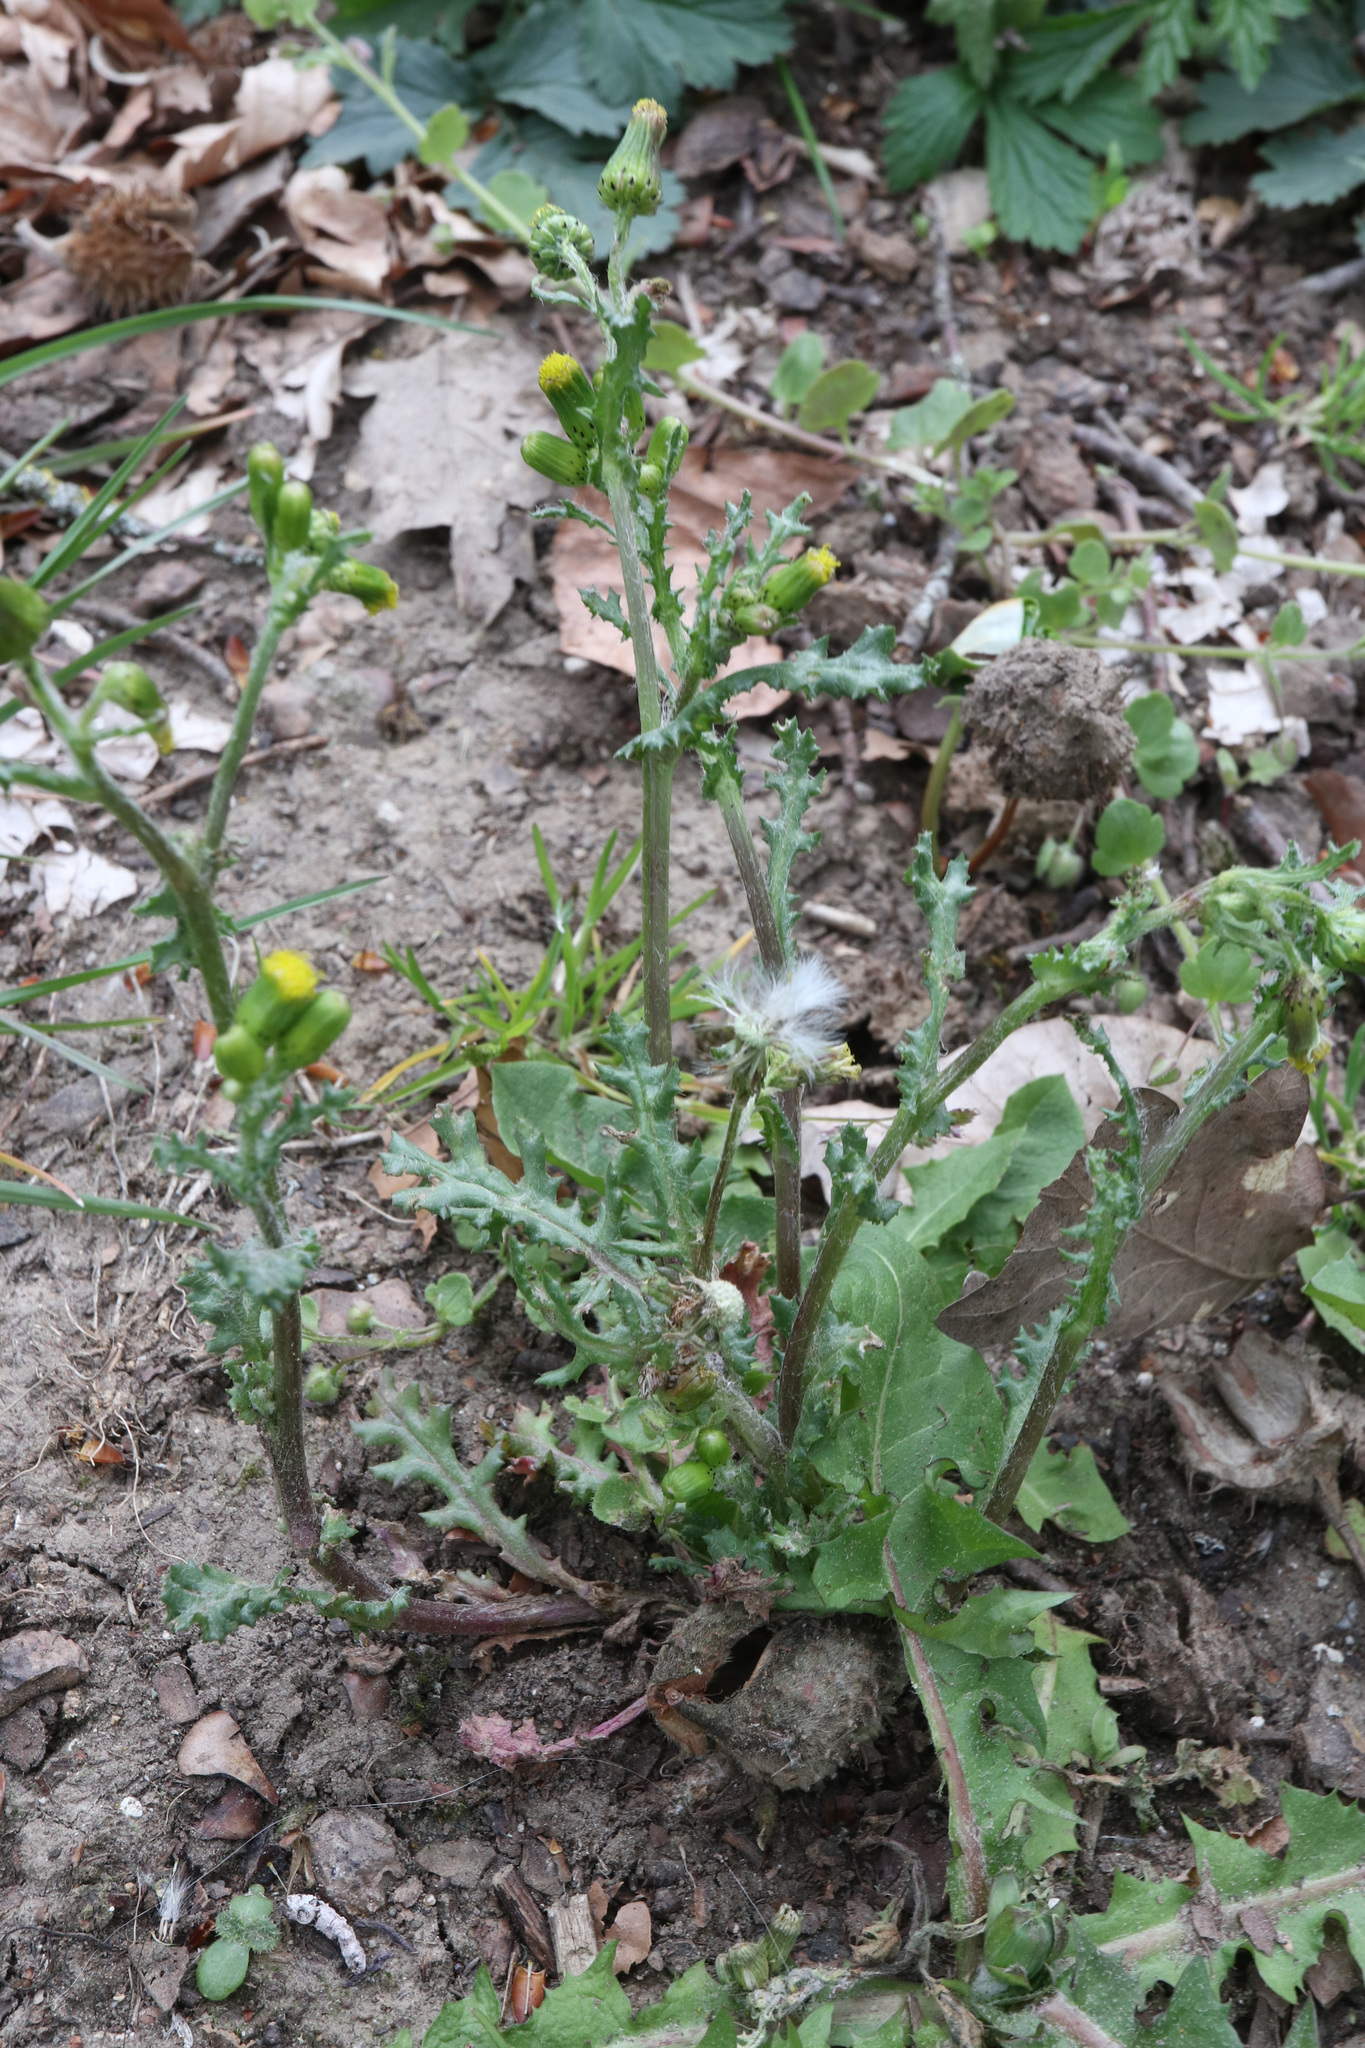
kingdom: Plantae
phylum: Tracheophyta
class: Magnoliopsida
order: Asterales
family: Asteraceae
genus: Senecio
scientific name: Senecio vulgaris
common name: Old-man-in-the-spring
